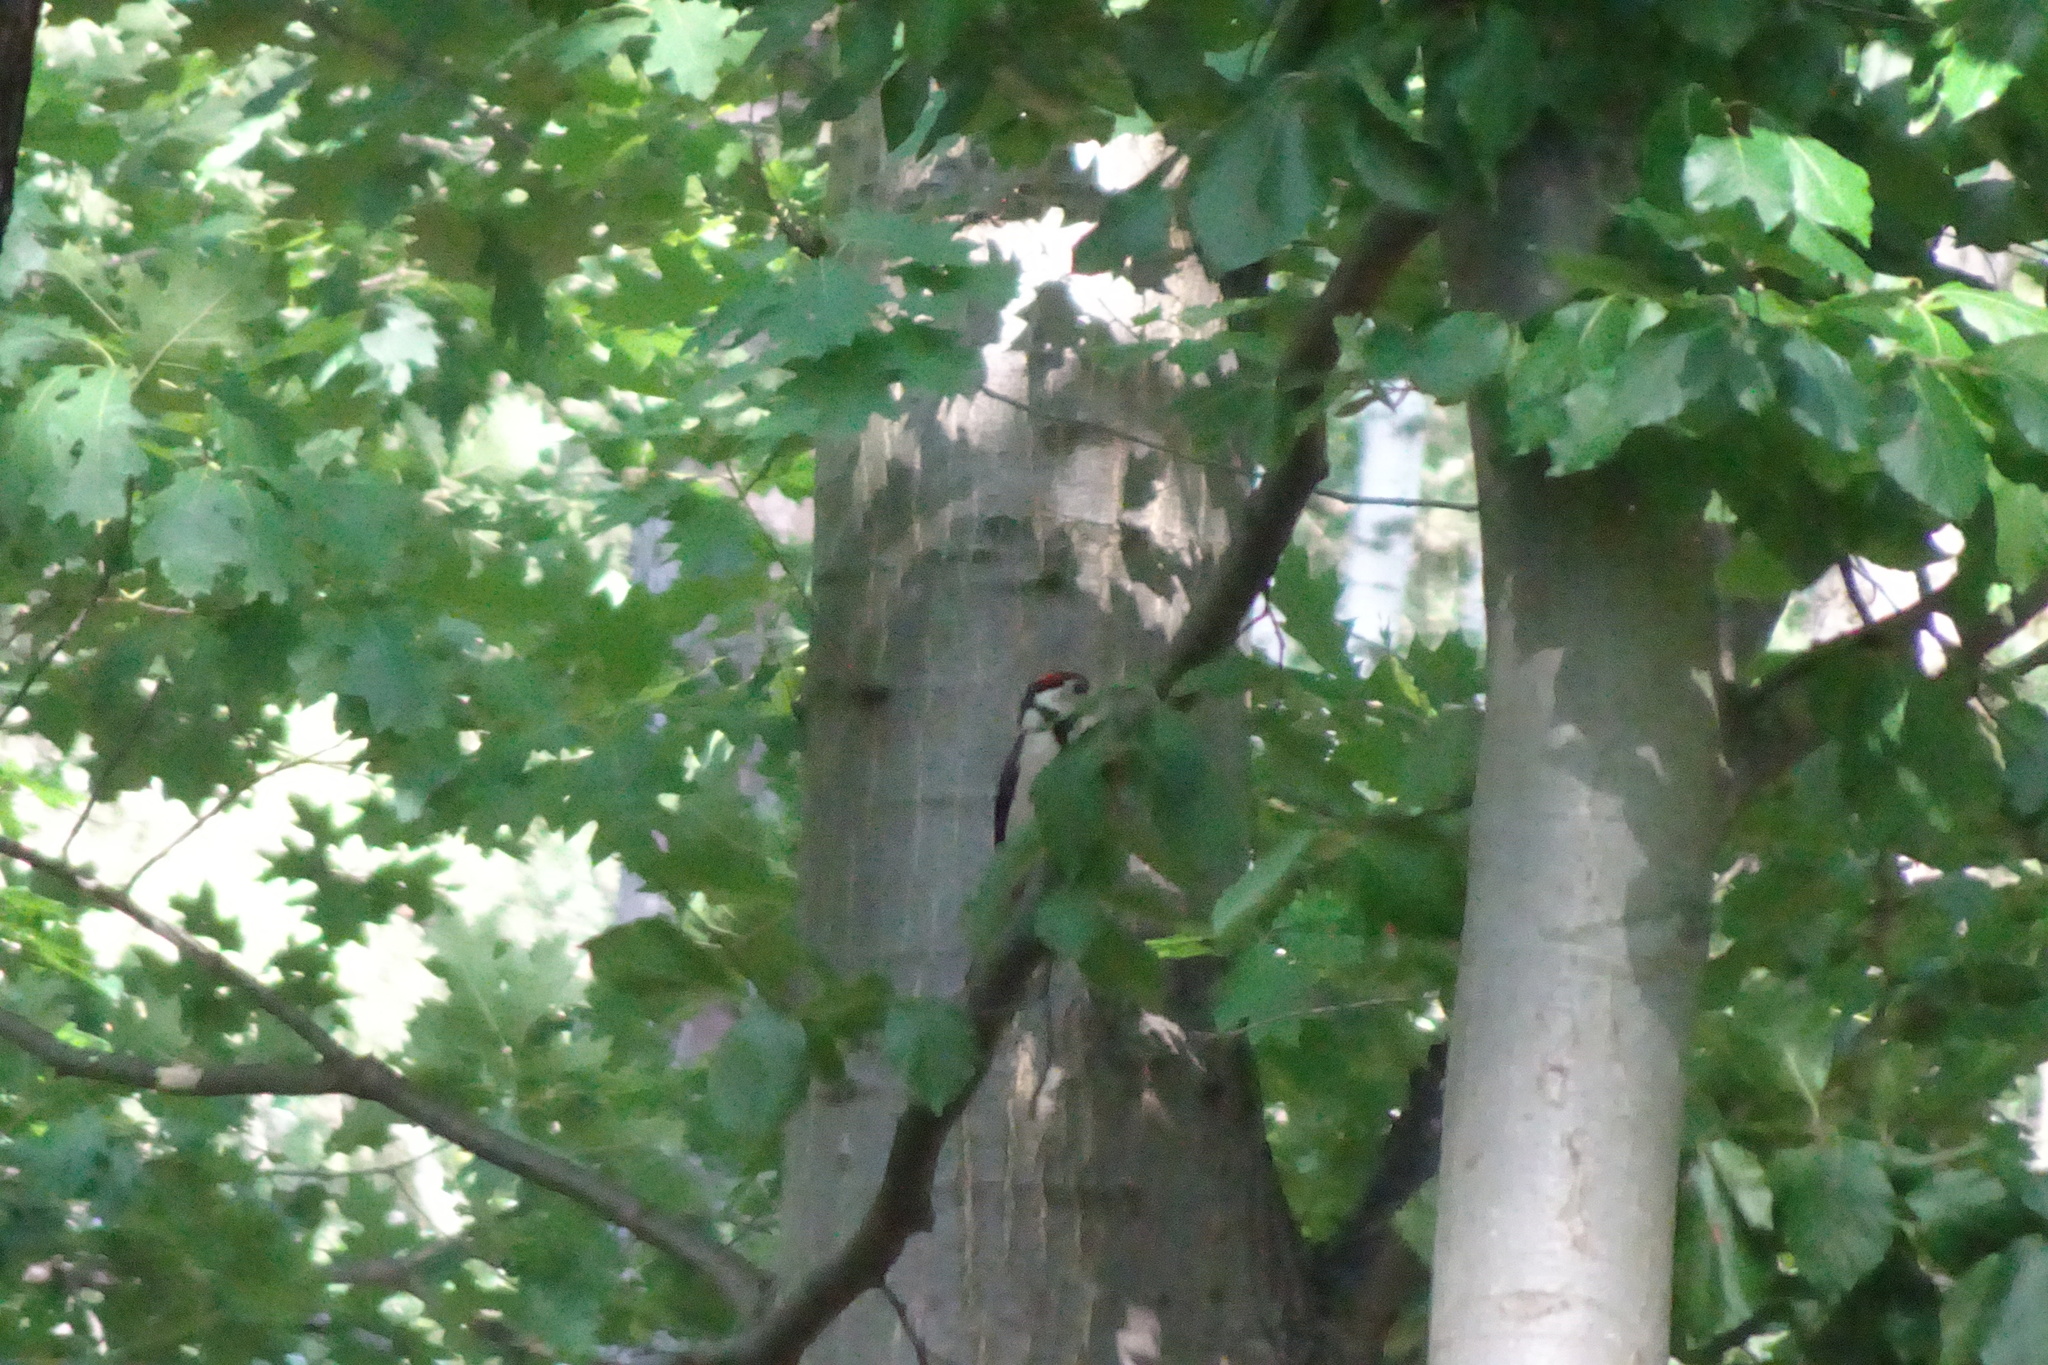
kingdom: Animalia
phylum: Chordata
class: Aves
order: Piciformes
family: Picidae
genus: Dendrocopos
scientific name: Dendrocopos major
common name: Great spotted woodpecker
